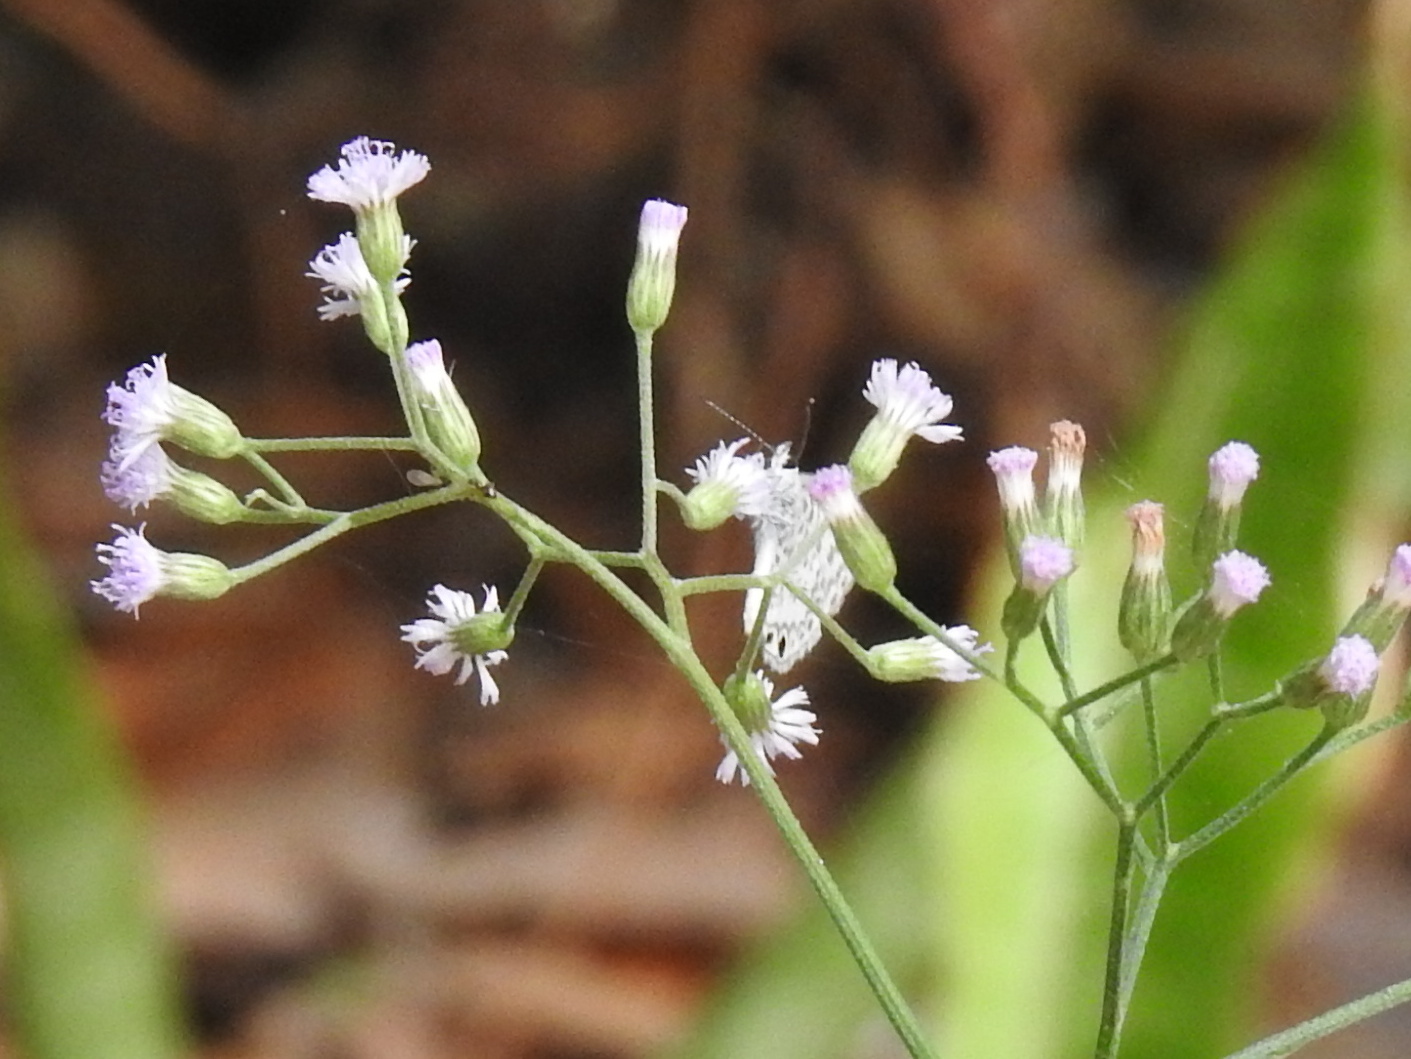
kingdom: Animalia
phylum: Arthropoda
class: Insecta
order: Lepidoptera
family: Lycaenidae
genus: Leptotes
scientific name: Leptotes cassius
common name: Cassius blue
